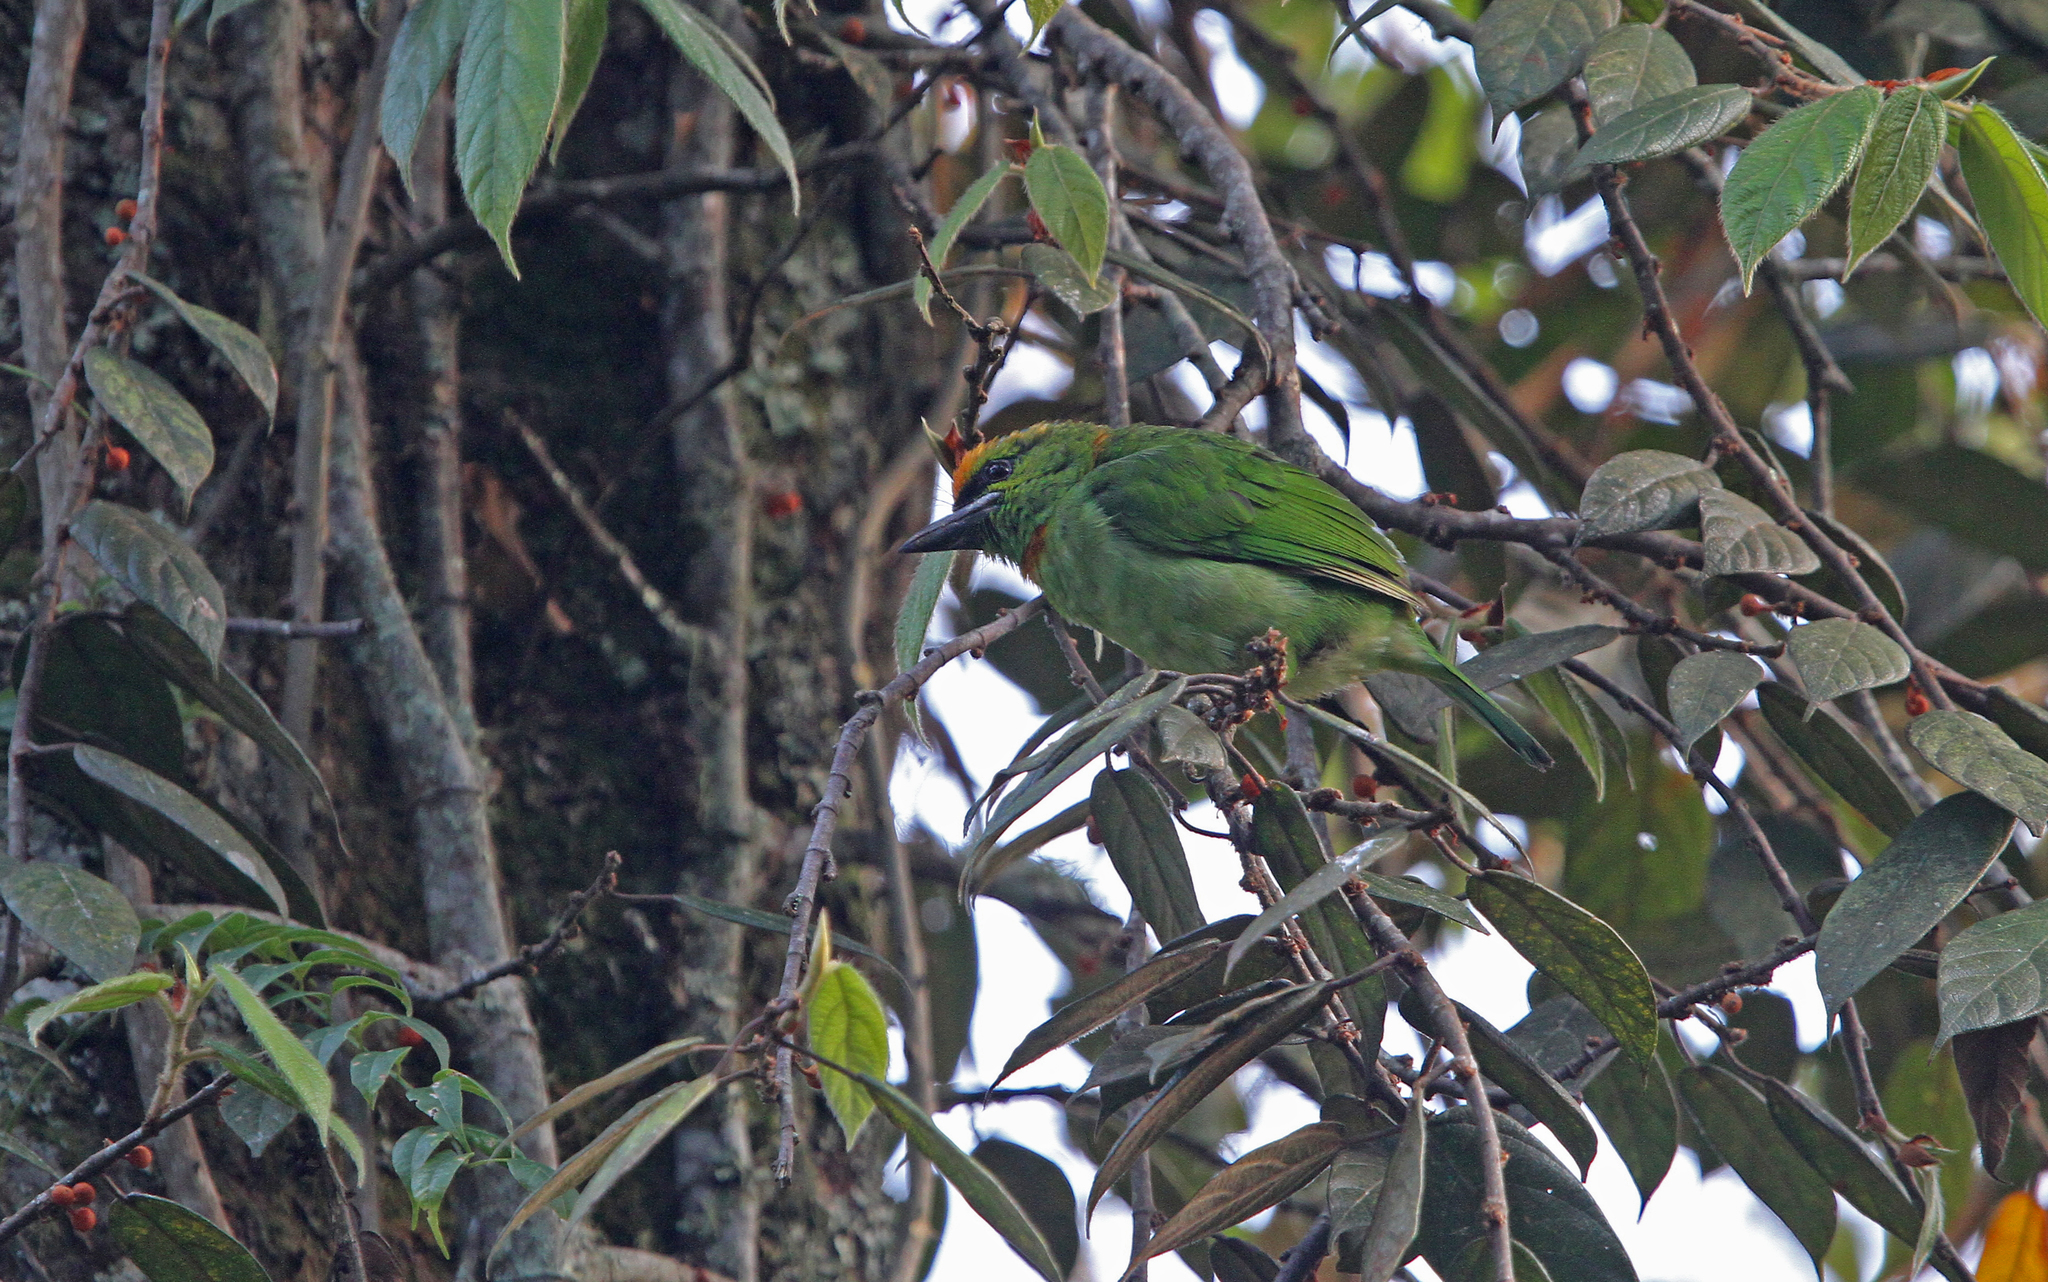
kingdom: Animalia
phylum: Chordata
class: Aves
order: Piciformes
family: Megalaimidae
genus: Psilopogon
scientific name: Psilopogon armillaris
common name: Flame-fronted barbet
